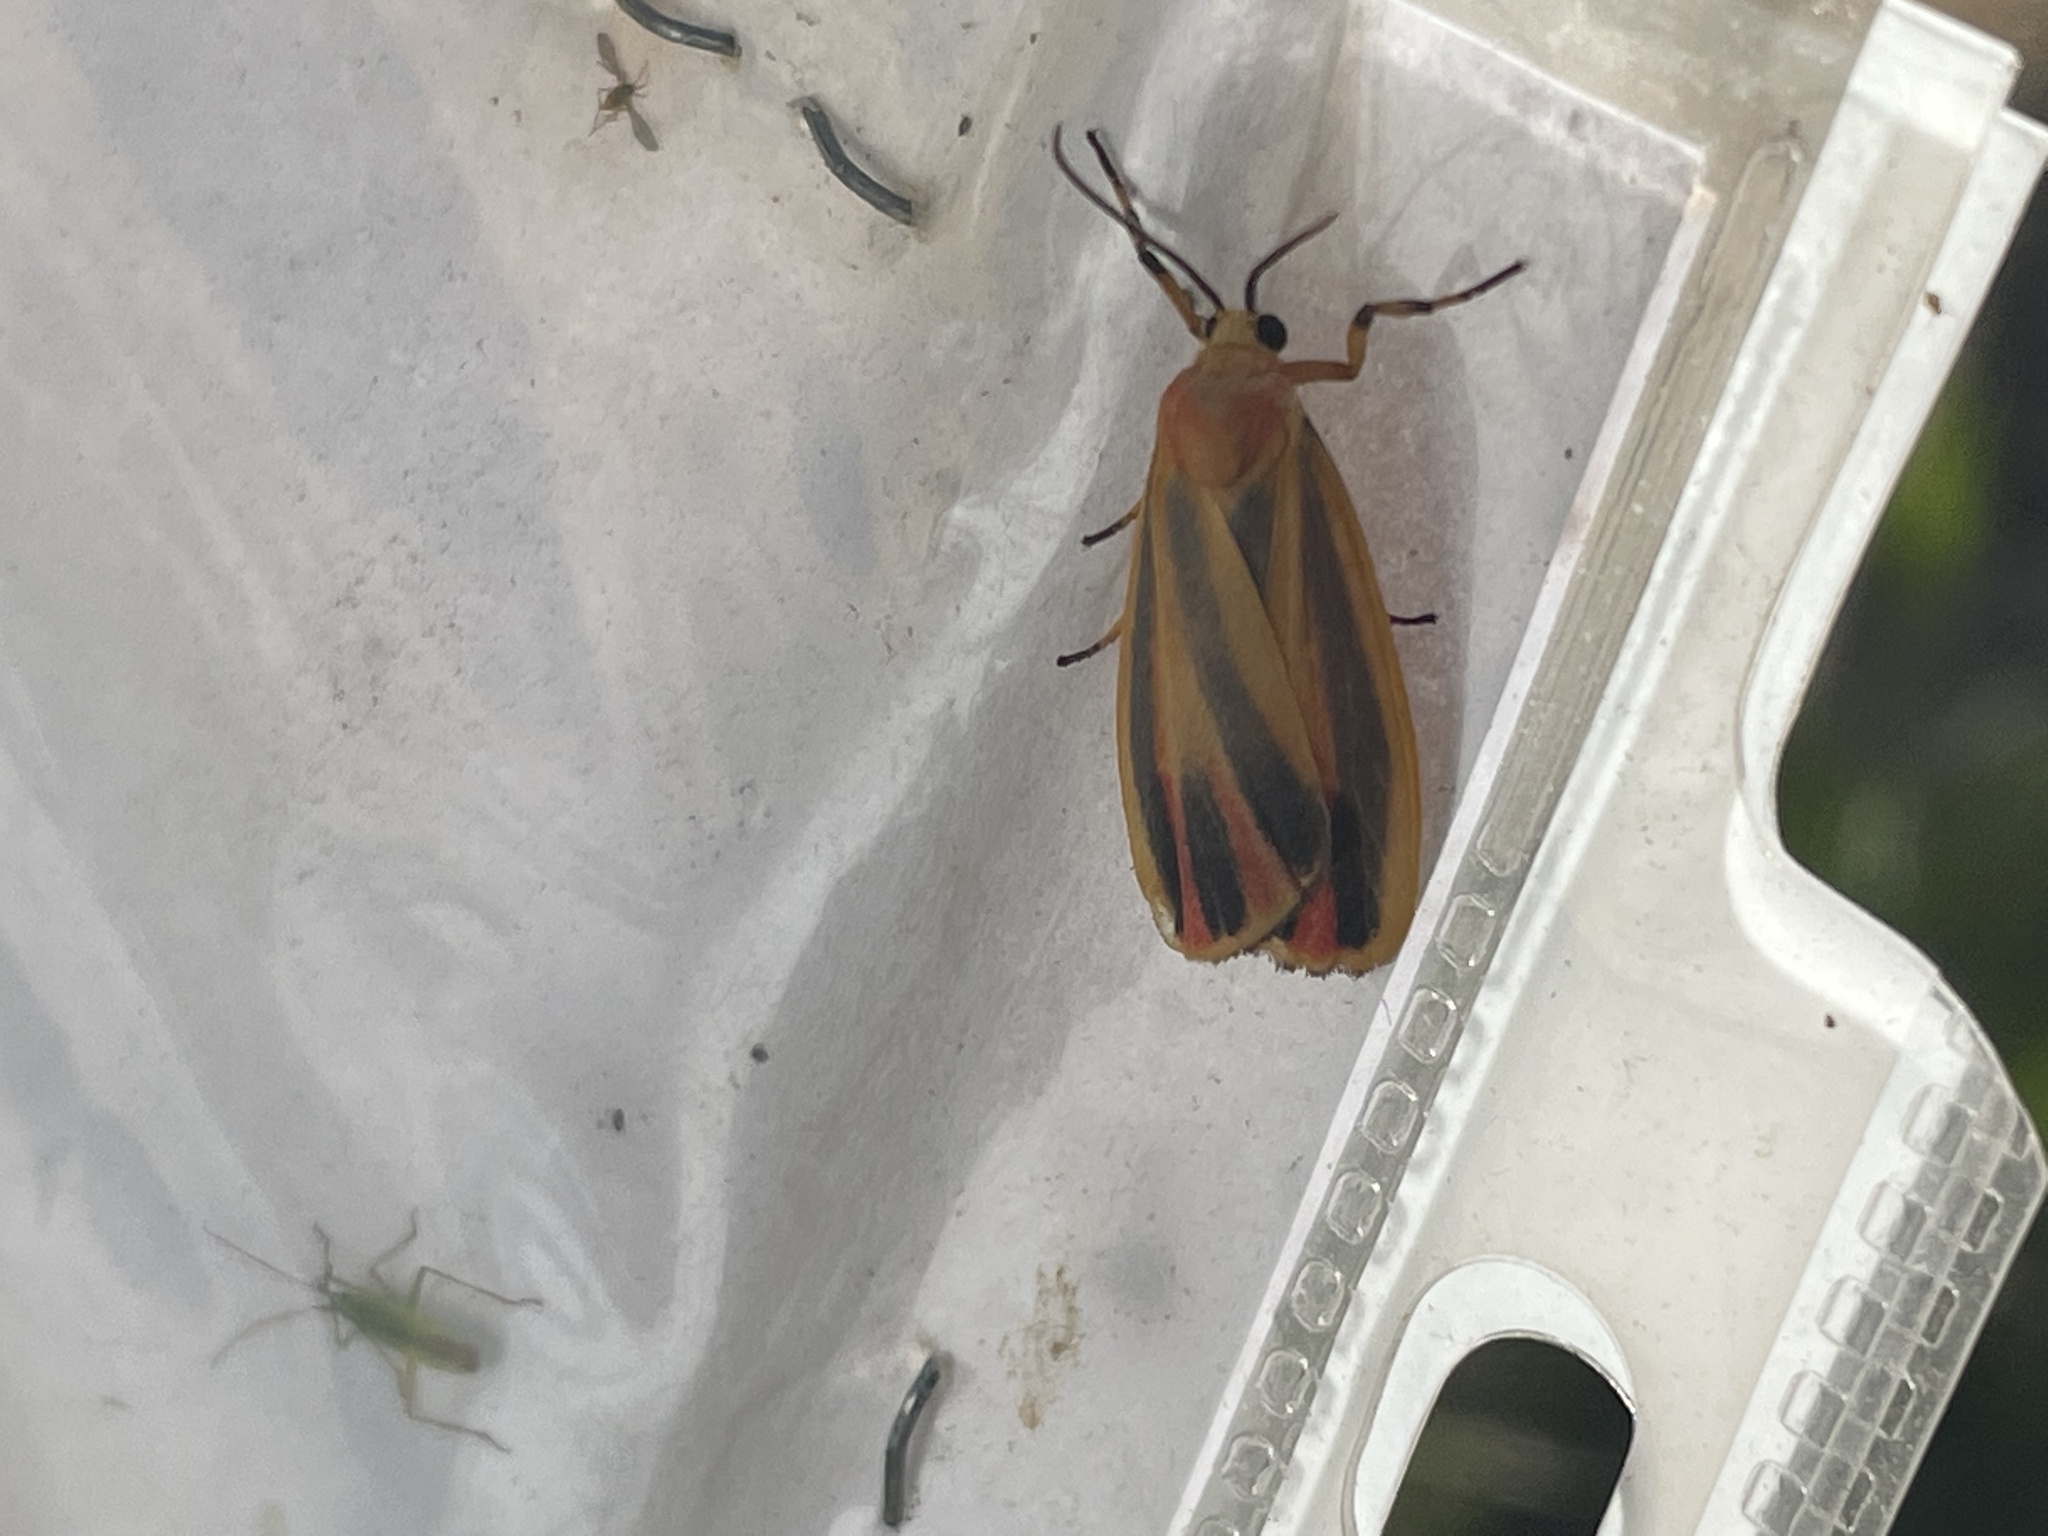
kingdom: Animalia
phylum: Arthropoda
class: Insecta
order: Lepidoptera
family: Erebidae
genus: Hypoprepia
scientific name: Hypoprepia fucosa
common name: Painted lichen moth
